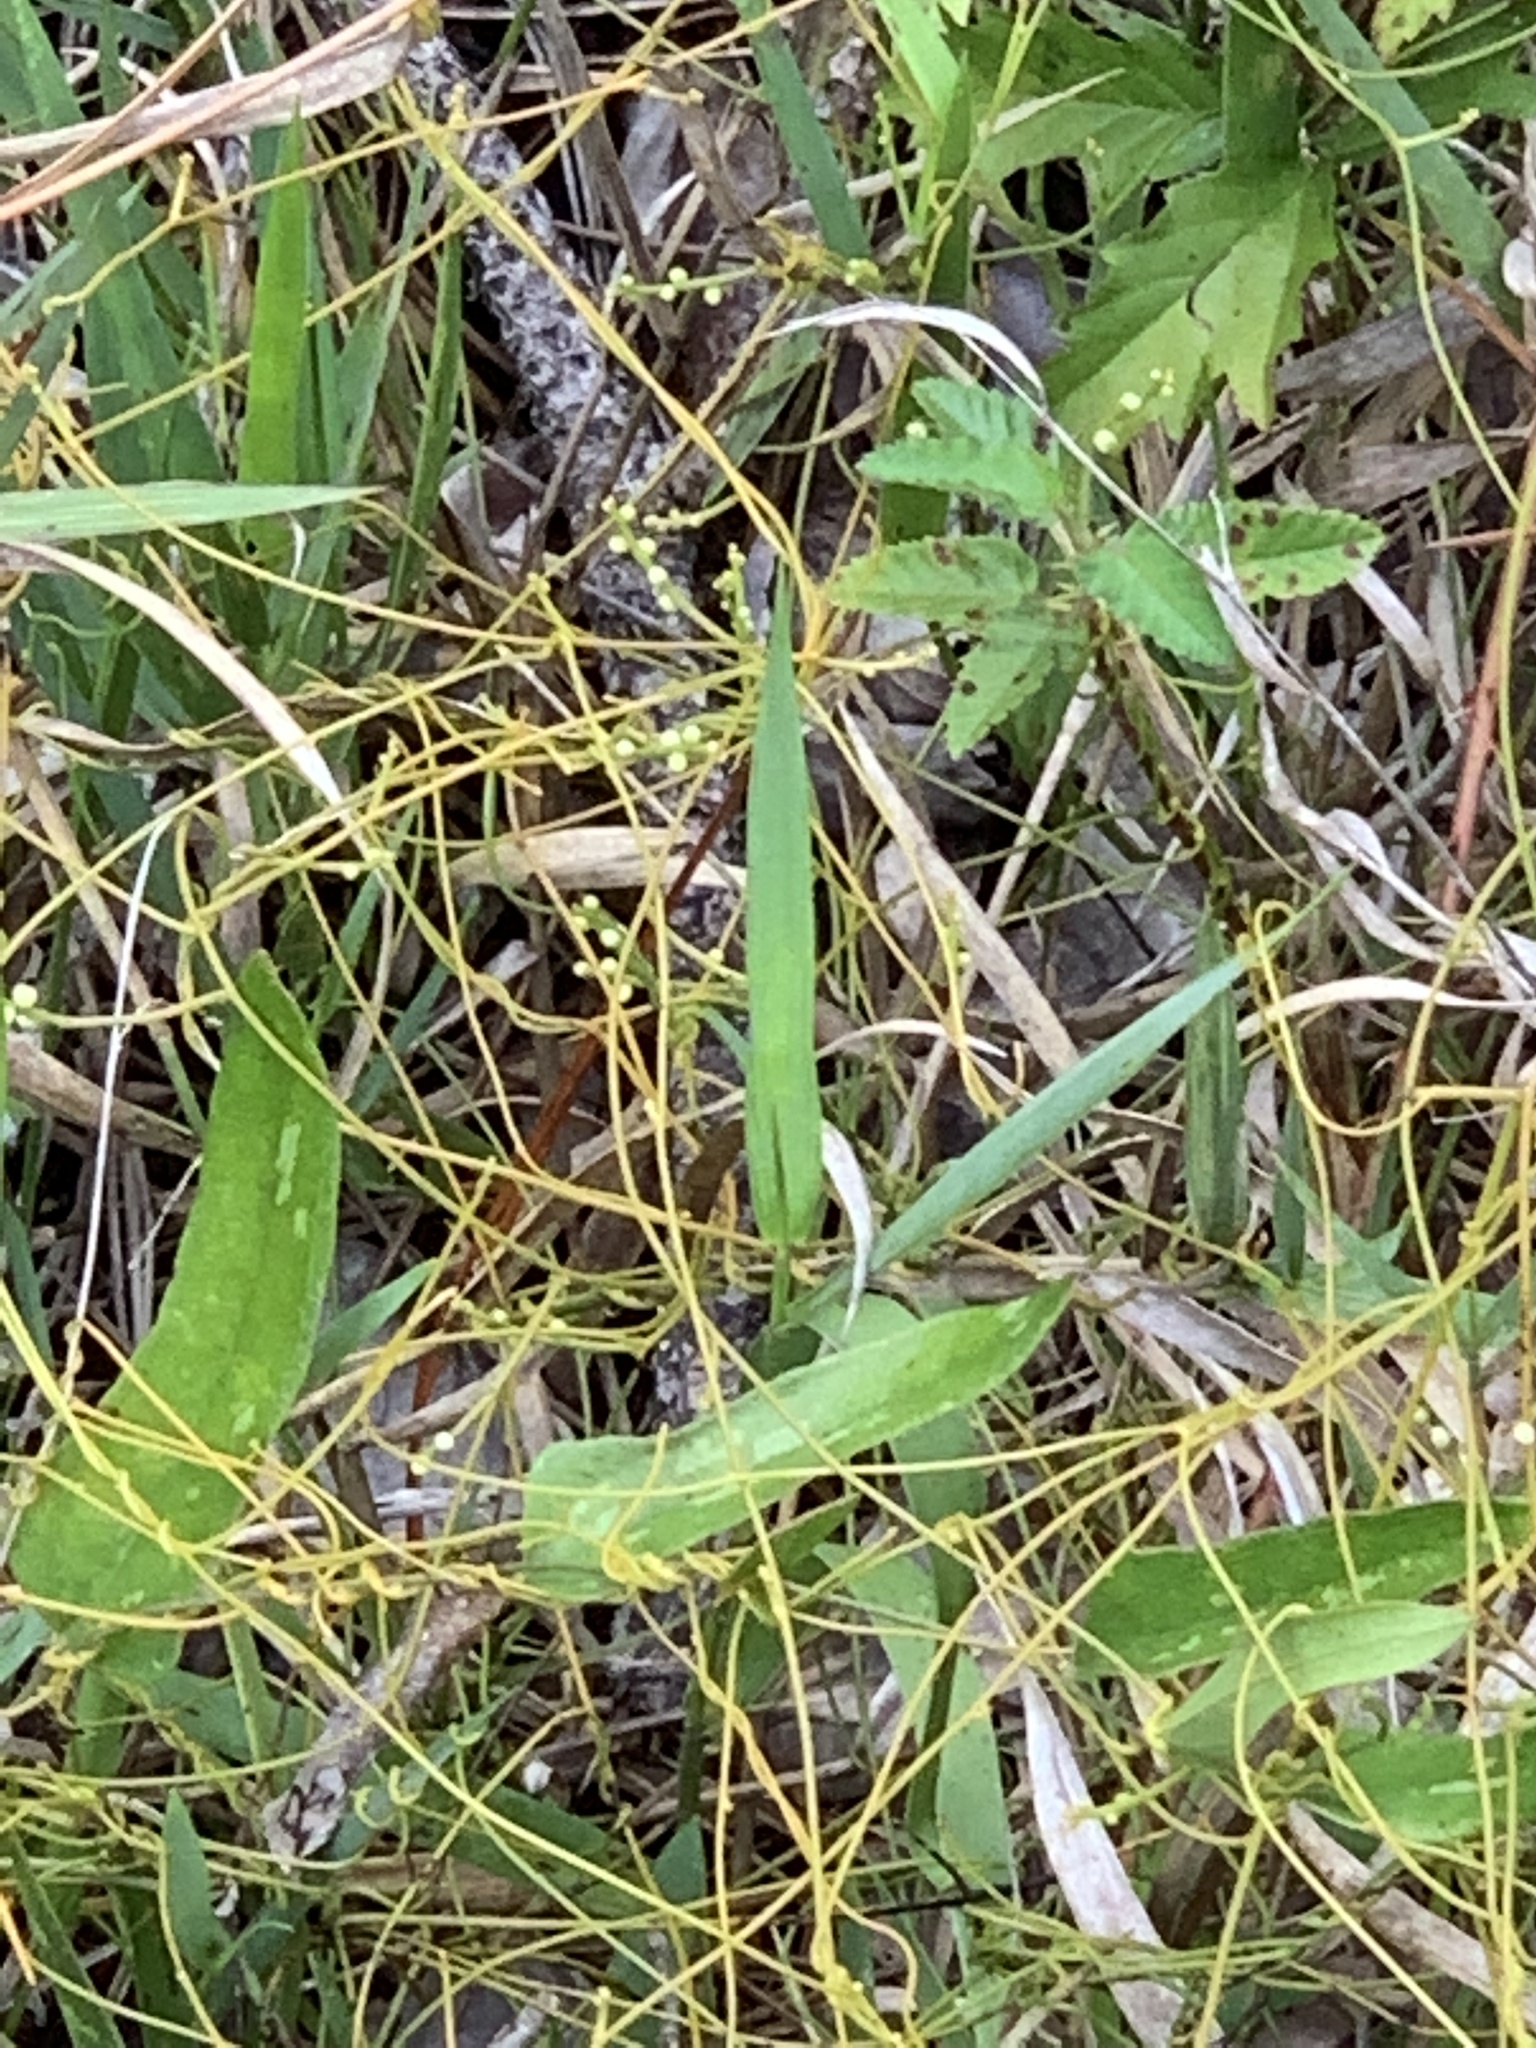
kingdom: Plantae
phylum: Tracheophyta
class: Magnoliopsida
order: Laurales
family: Lauraceae
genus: Cassytha
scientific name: Cassytha filiformis
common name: Dodder-laurel
